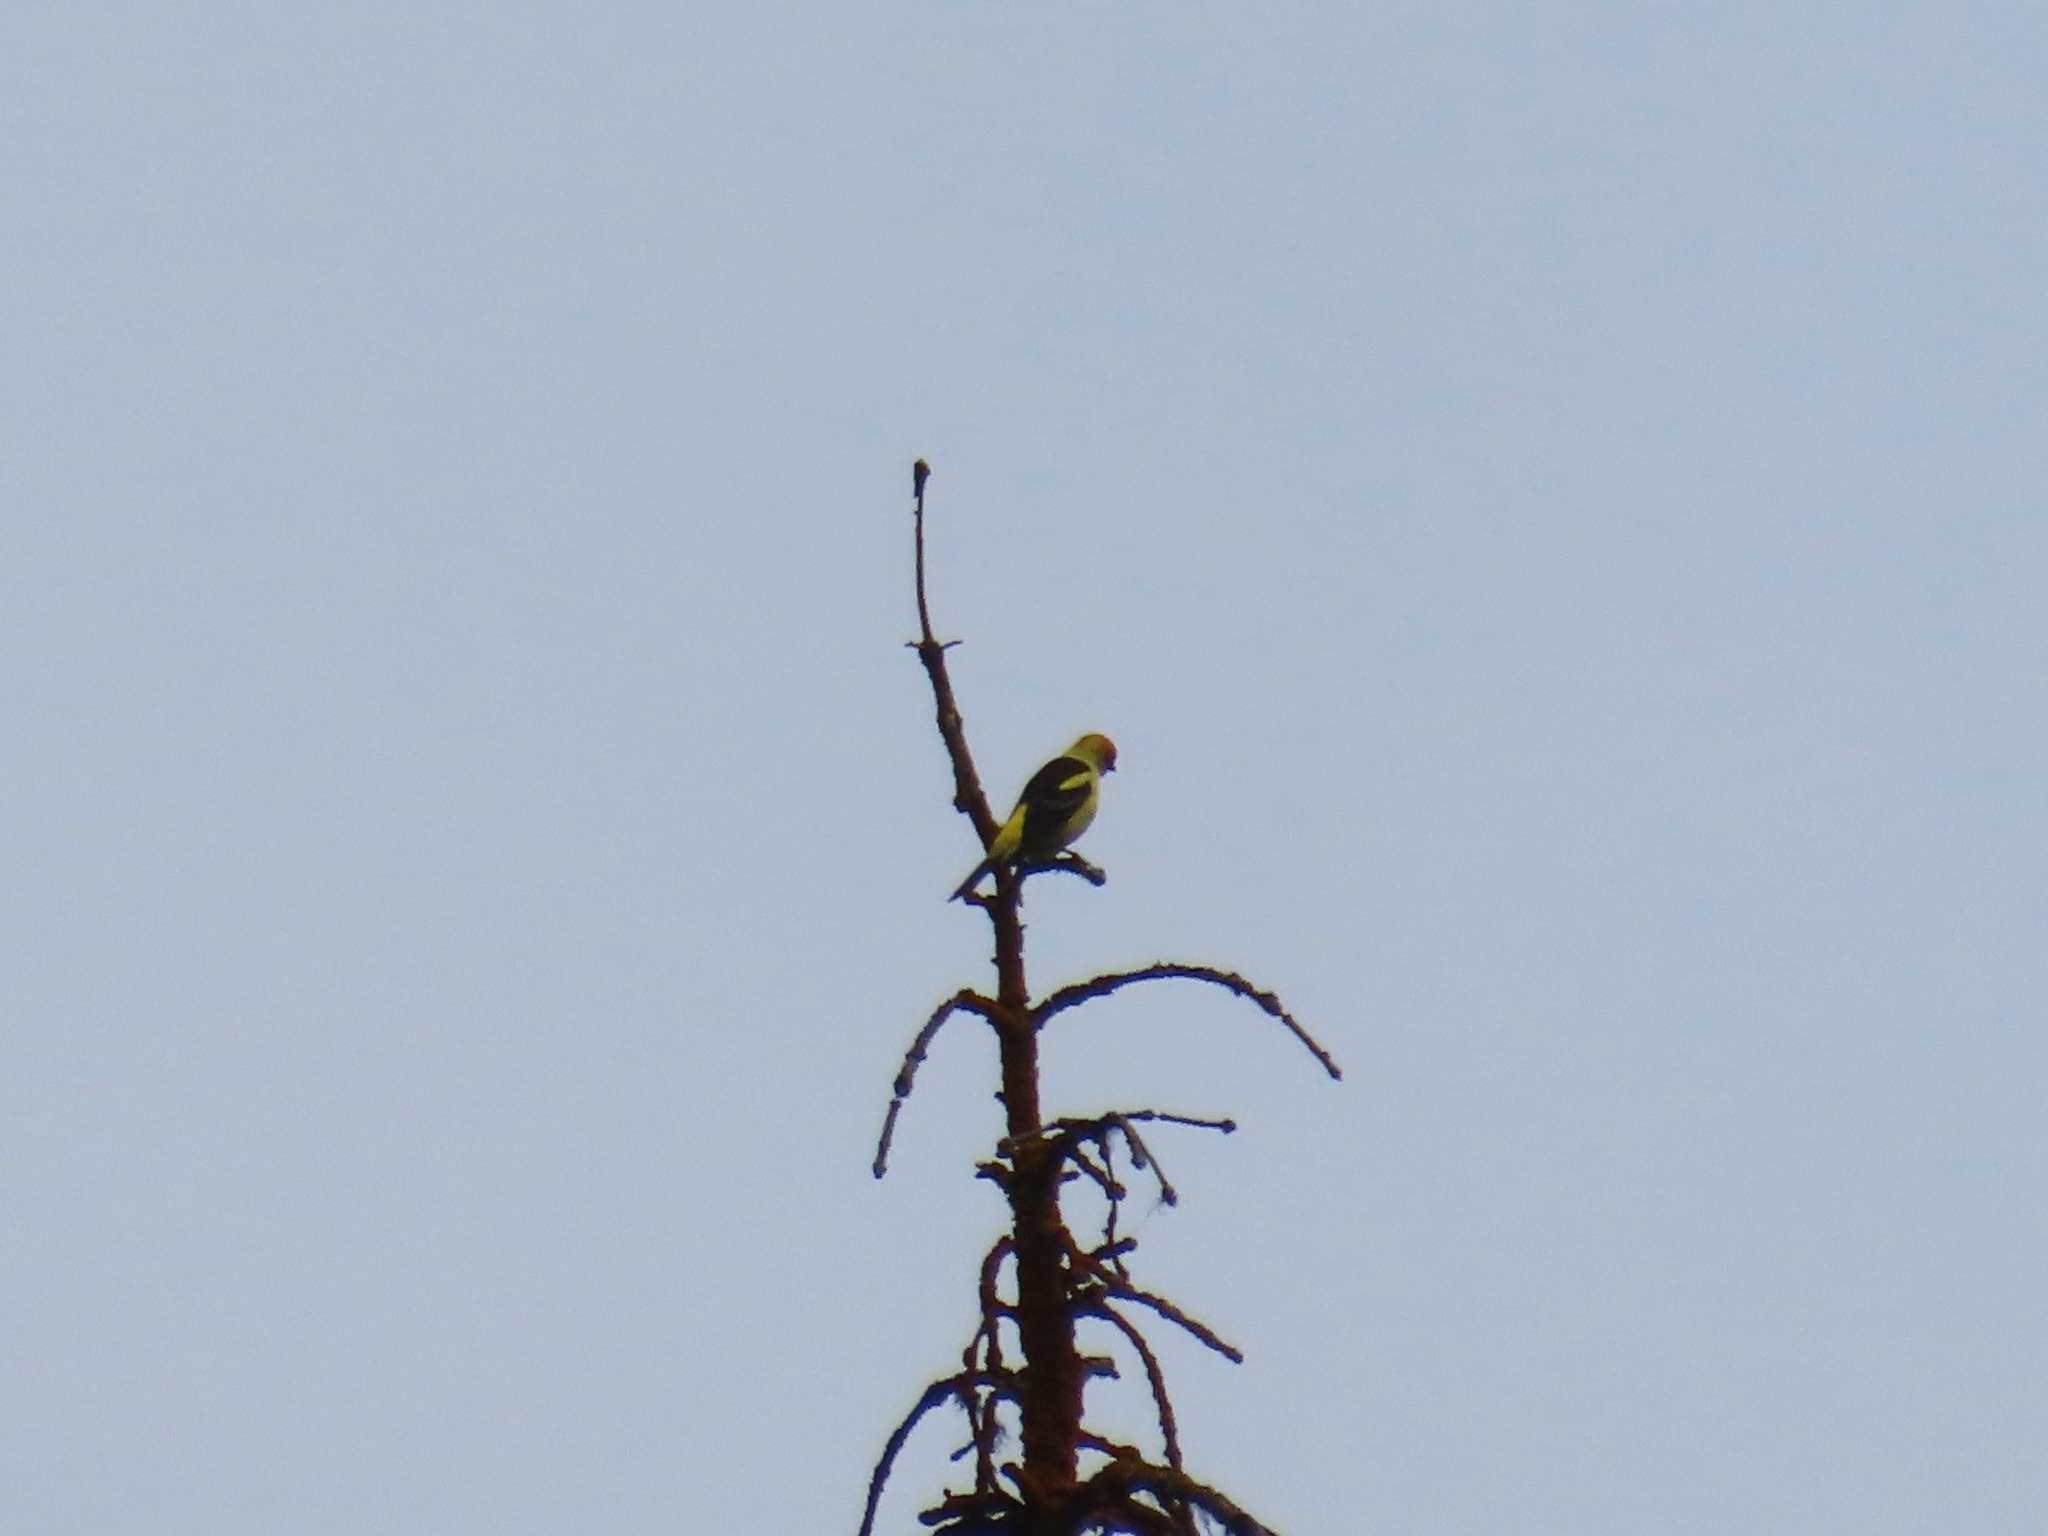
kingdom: Animalia
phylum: Chordata
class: Aves
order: Passeriformes
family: Cardinalidae
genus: Piranga
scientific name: Piranga ludoviciana
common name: Western tanager
